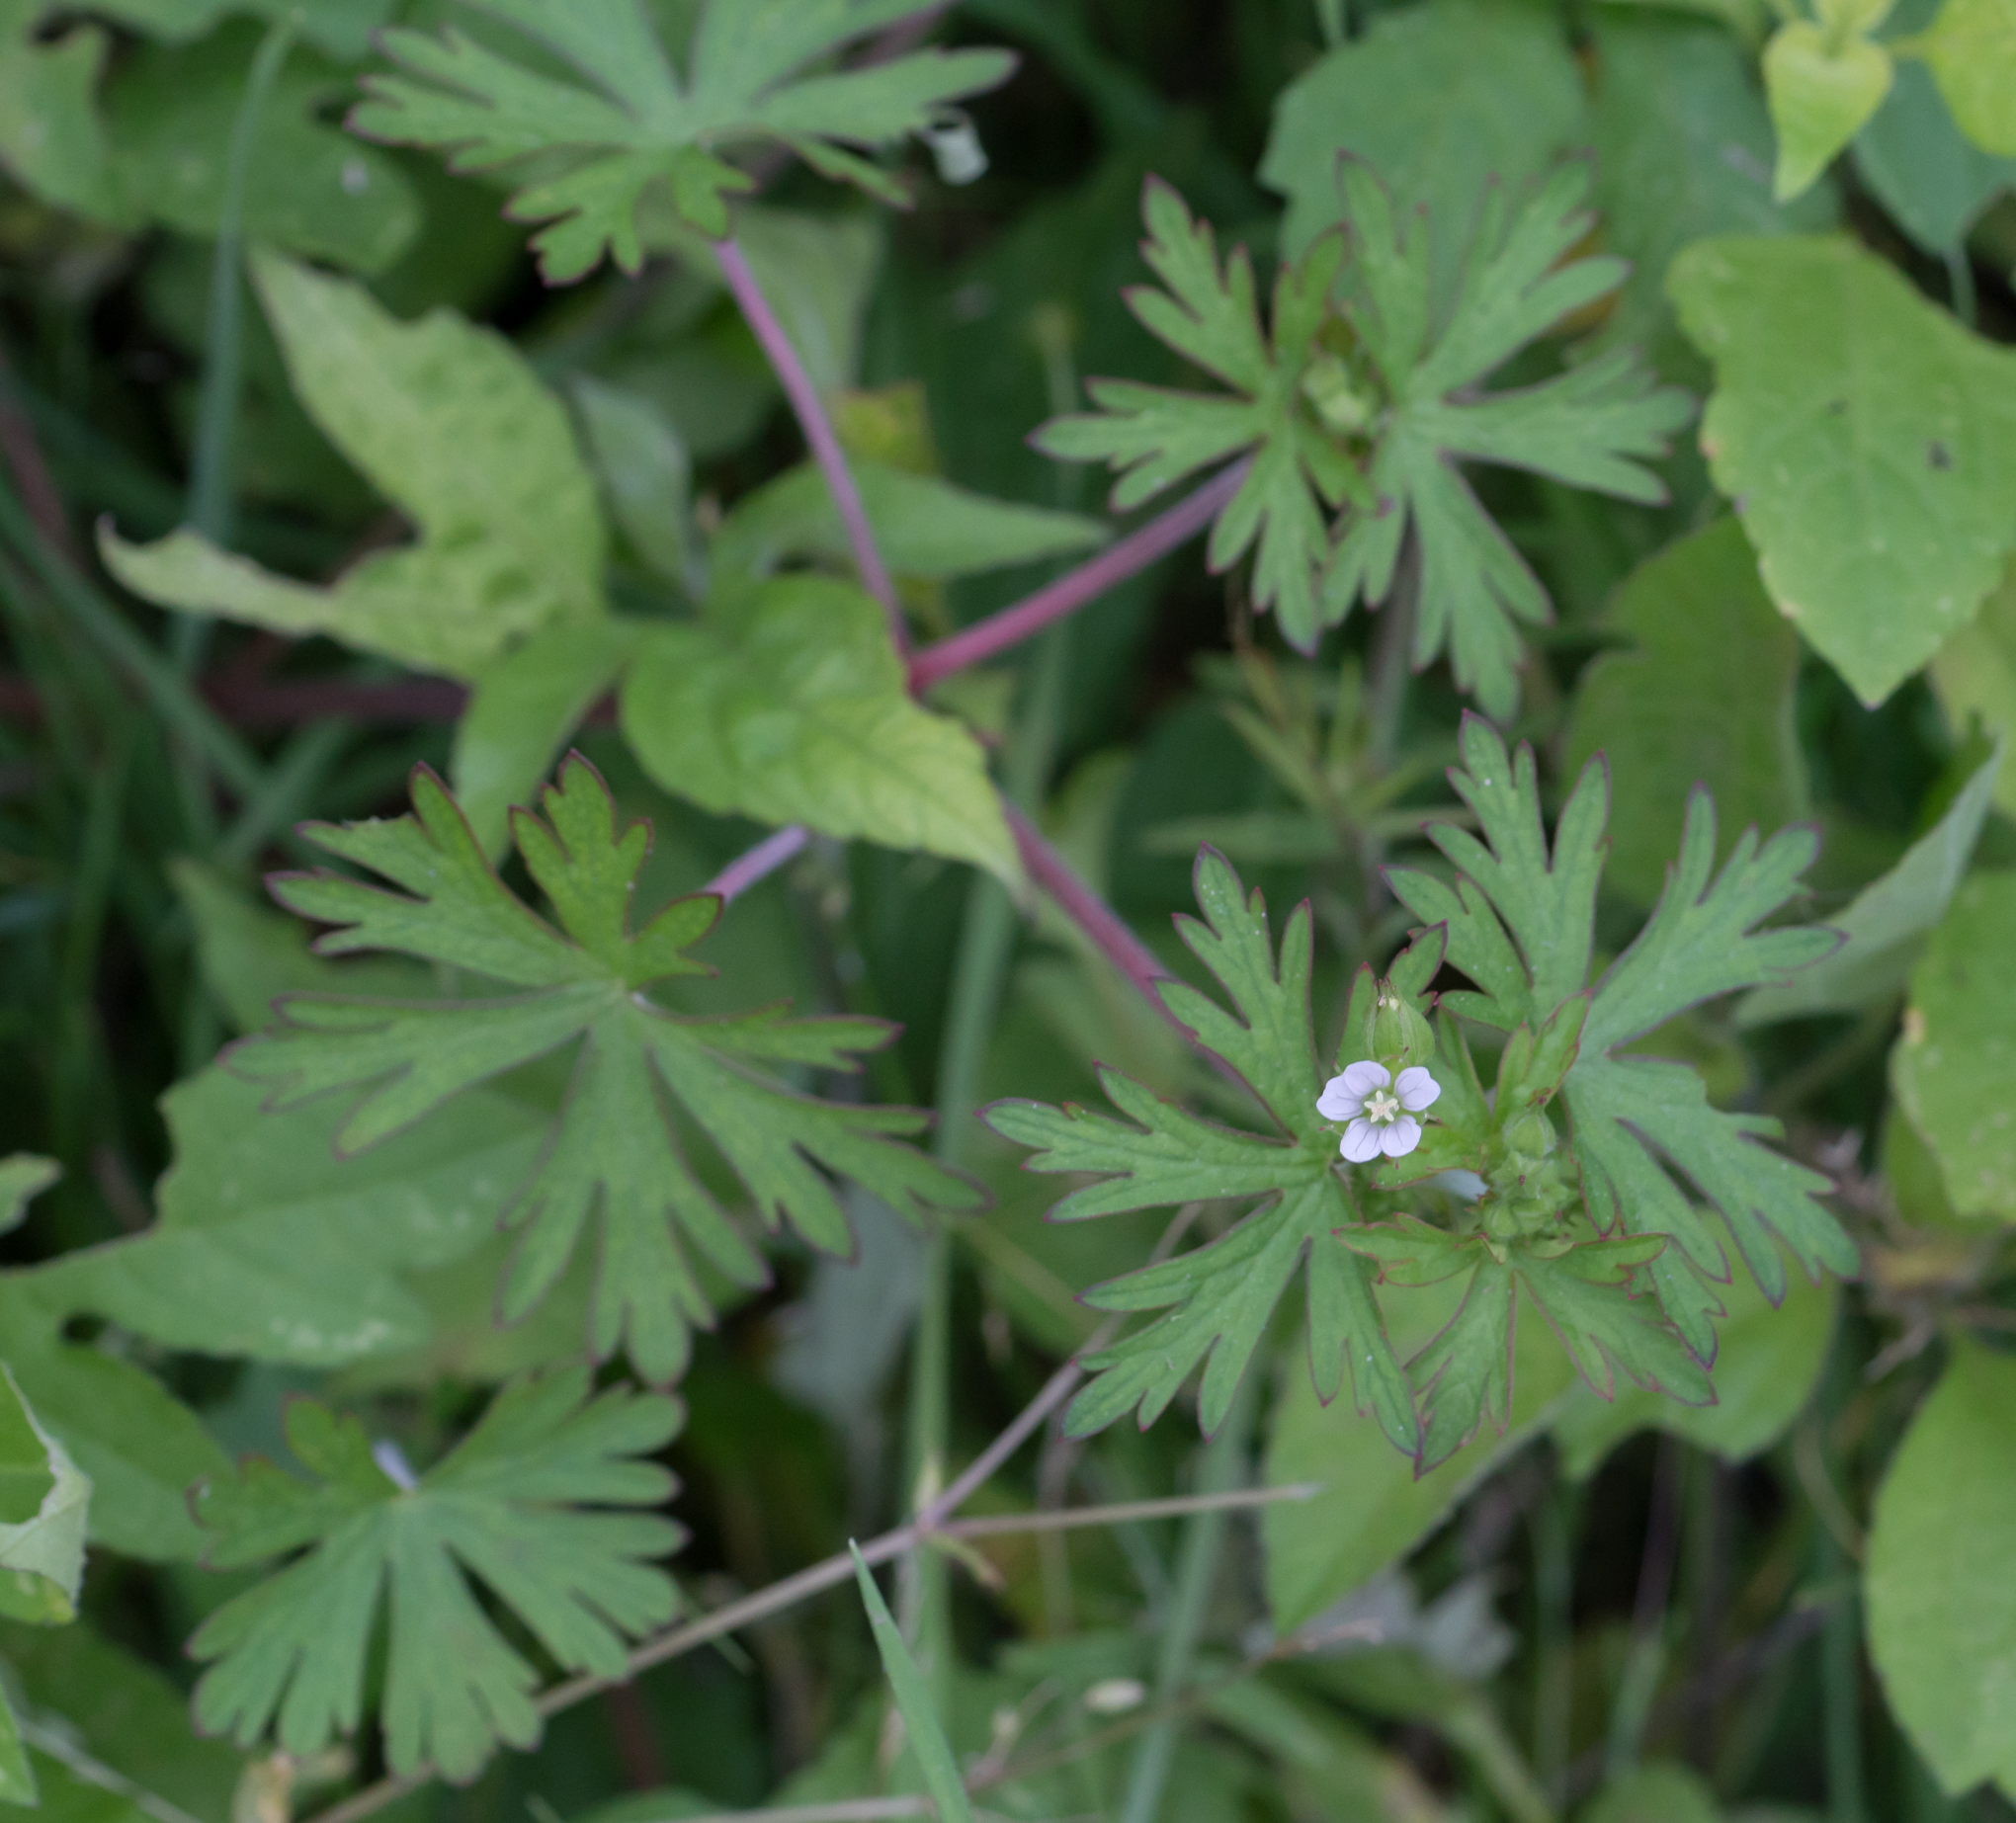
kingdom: Plantae
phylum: Tracheophyta
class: Magnoliopsida
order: Geraniales
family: Geraniaceae
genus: Geranium
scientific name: Geranium carolinianum
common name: Carolina crane's-bill
